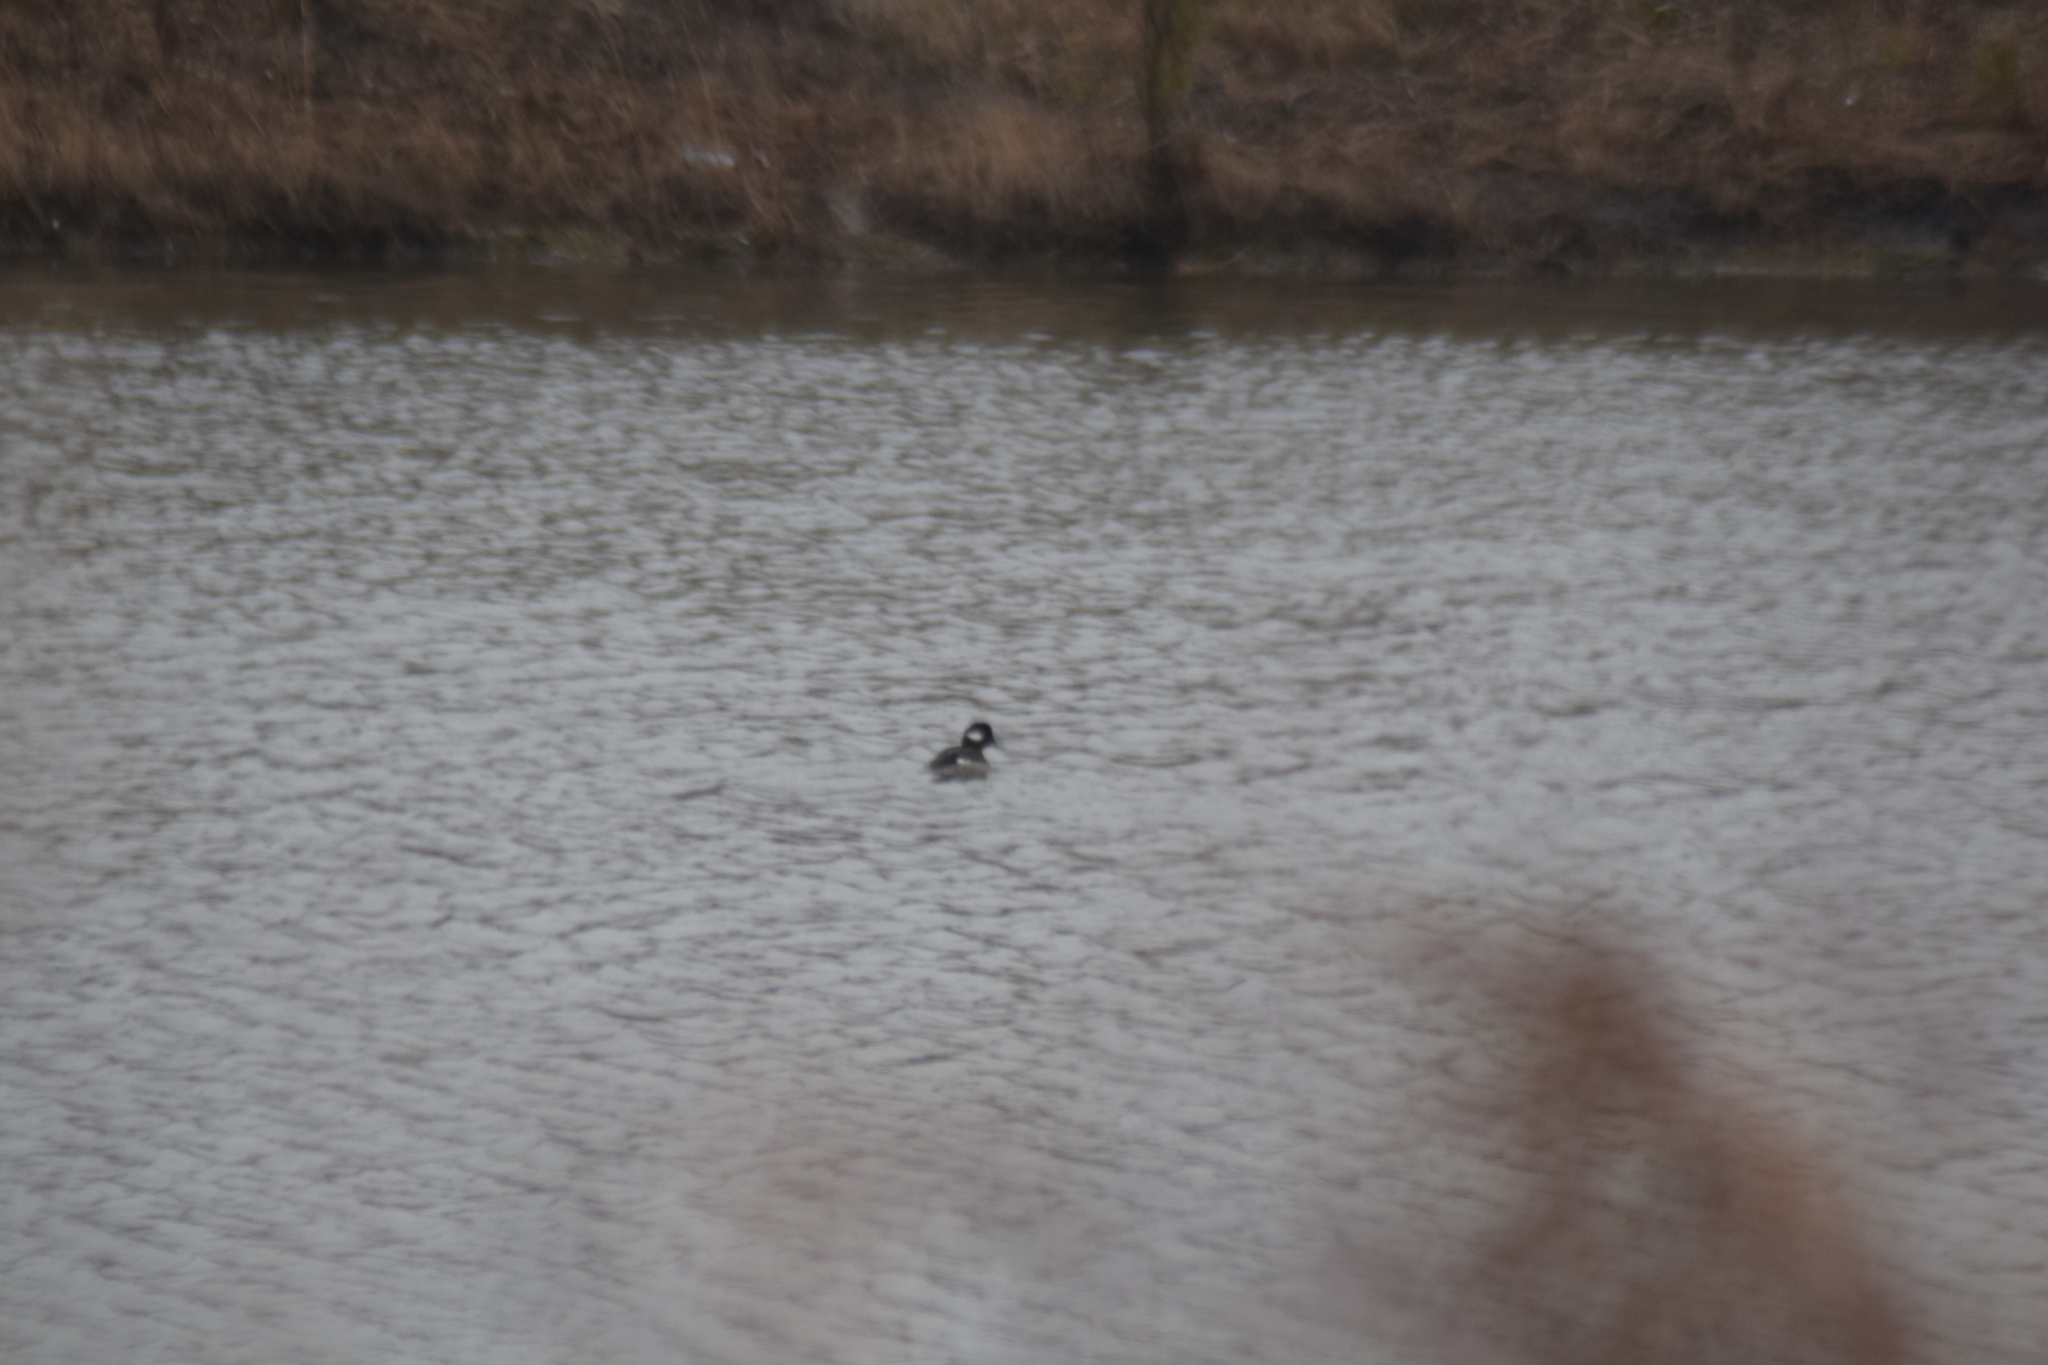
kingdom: Animalia
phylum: Chordata
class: Aves
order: Anseriformes
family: Anatidae
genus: Bucephala
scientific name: Bucephala albeola
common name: Bufflehead
